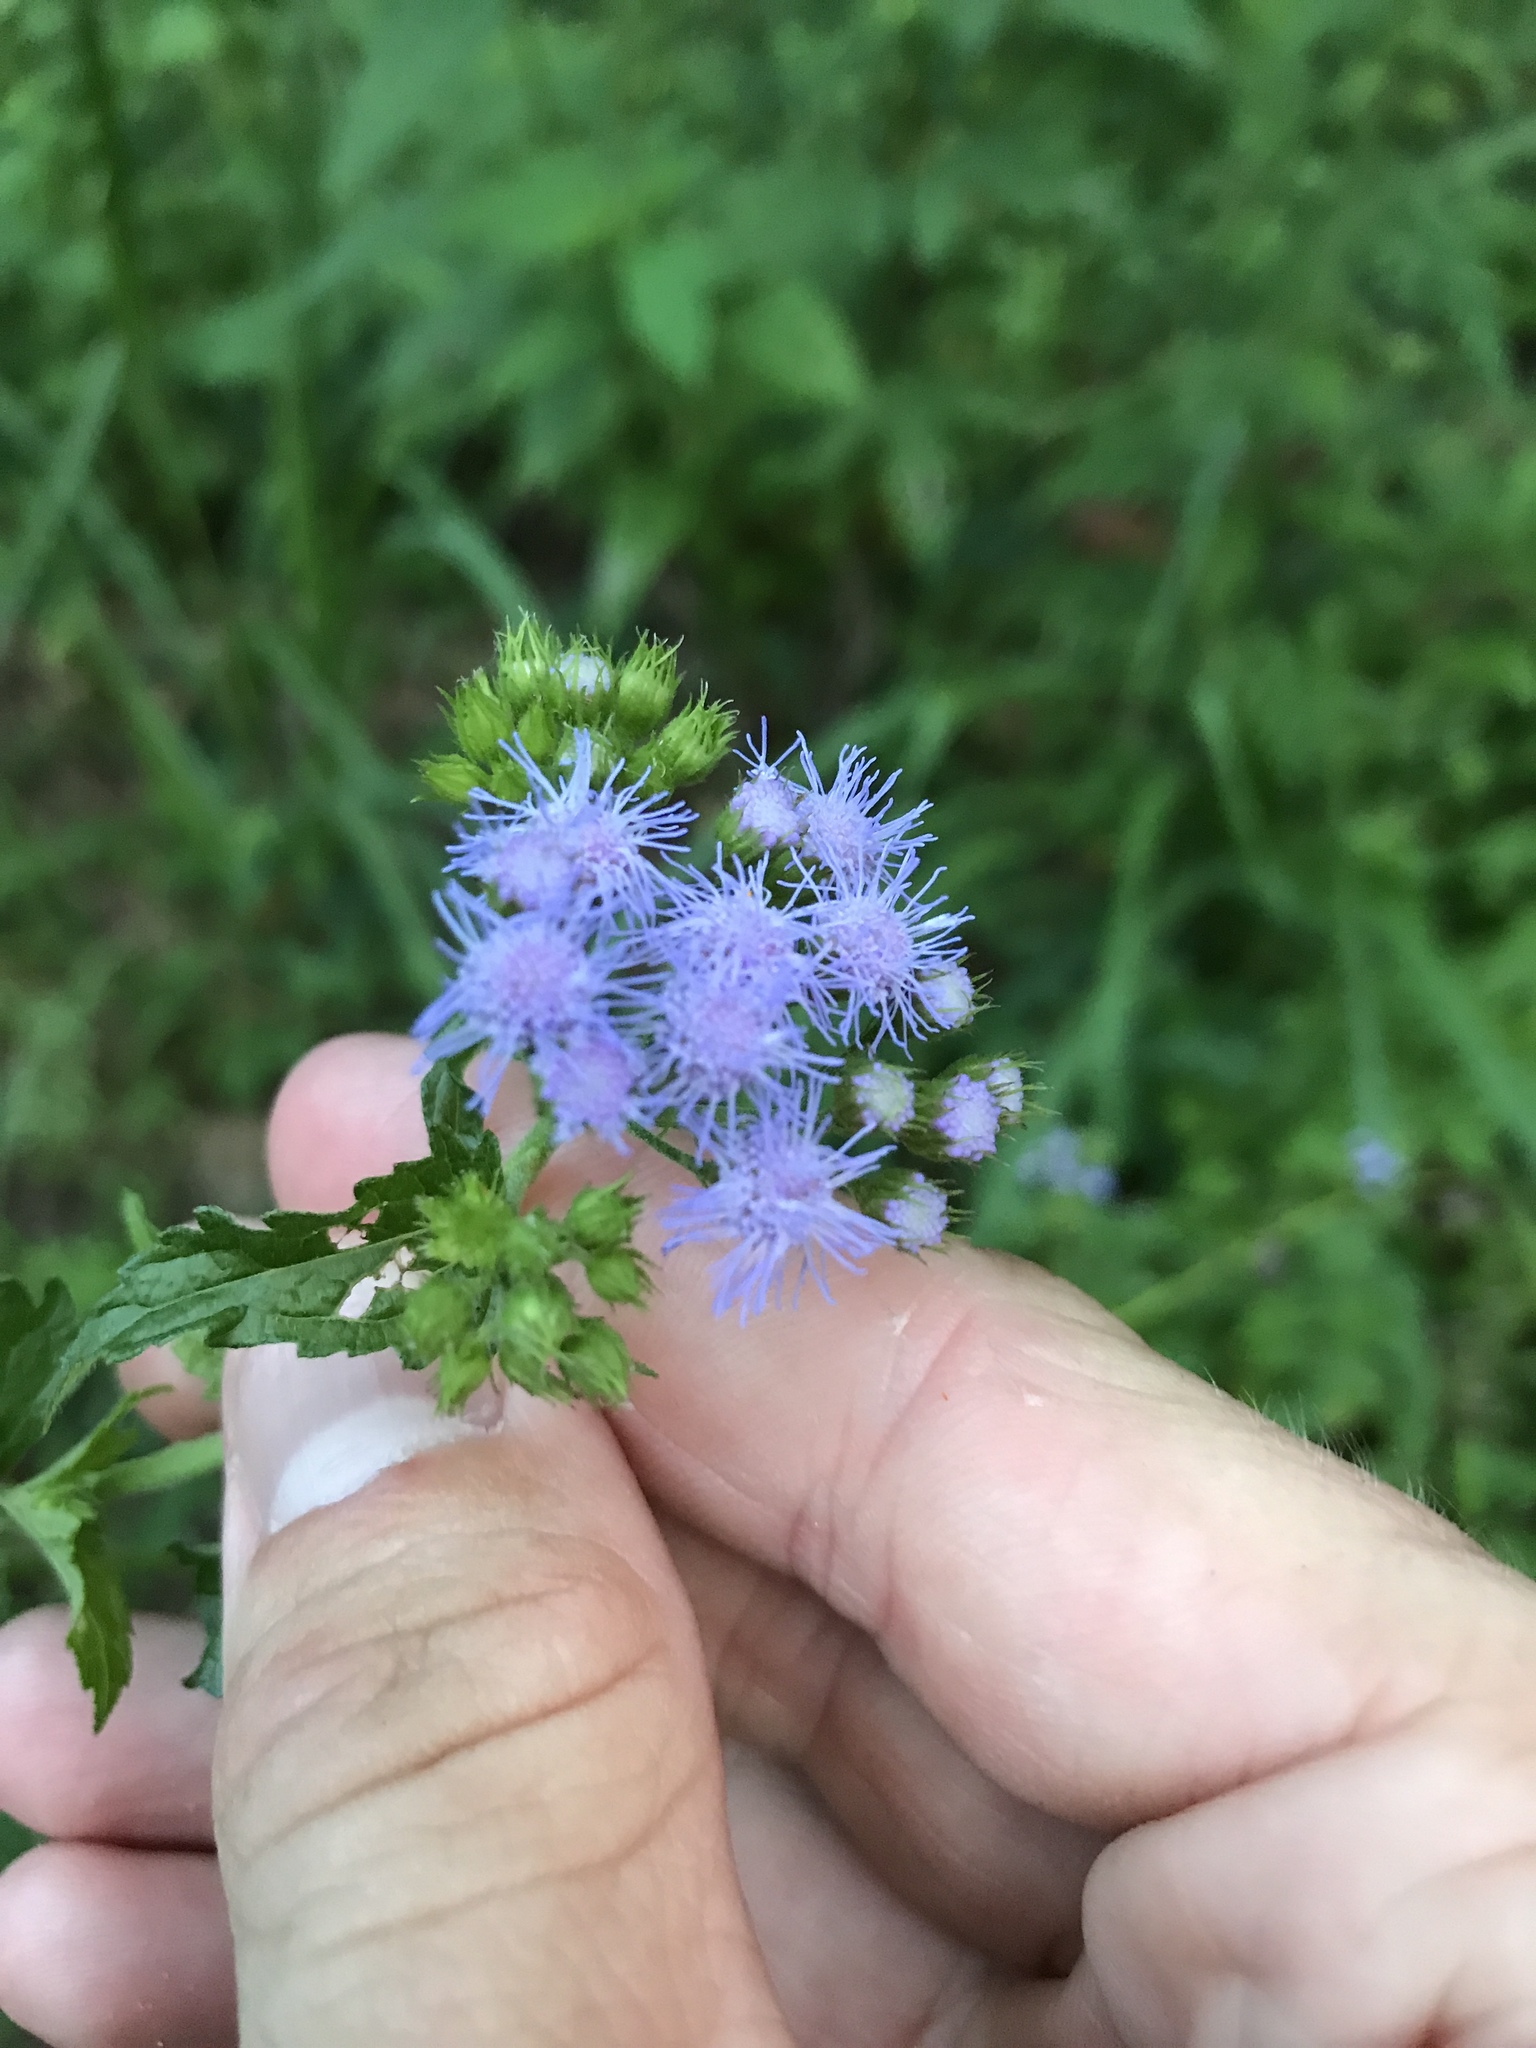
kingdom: Plantae
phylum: Tracheophyta
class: Magnoliopsida
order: Asterales
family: Asteraceae
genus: Conoclinium
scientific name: Conoclinium coelestinum
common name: Blue mistflower
